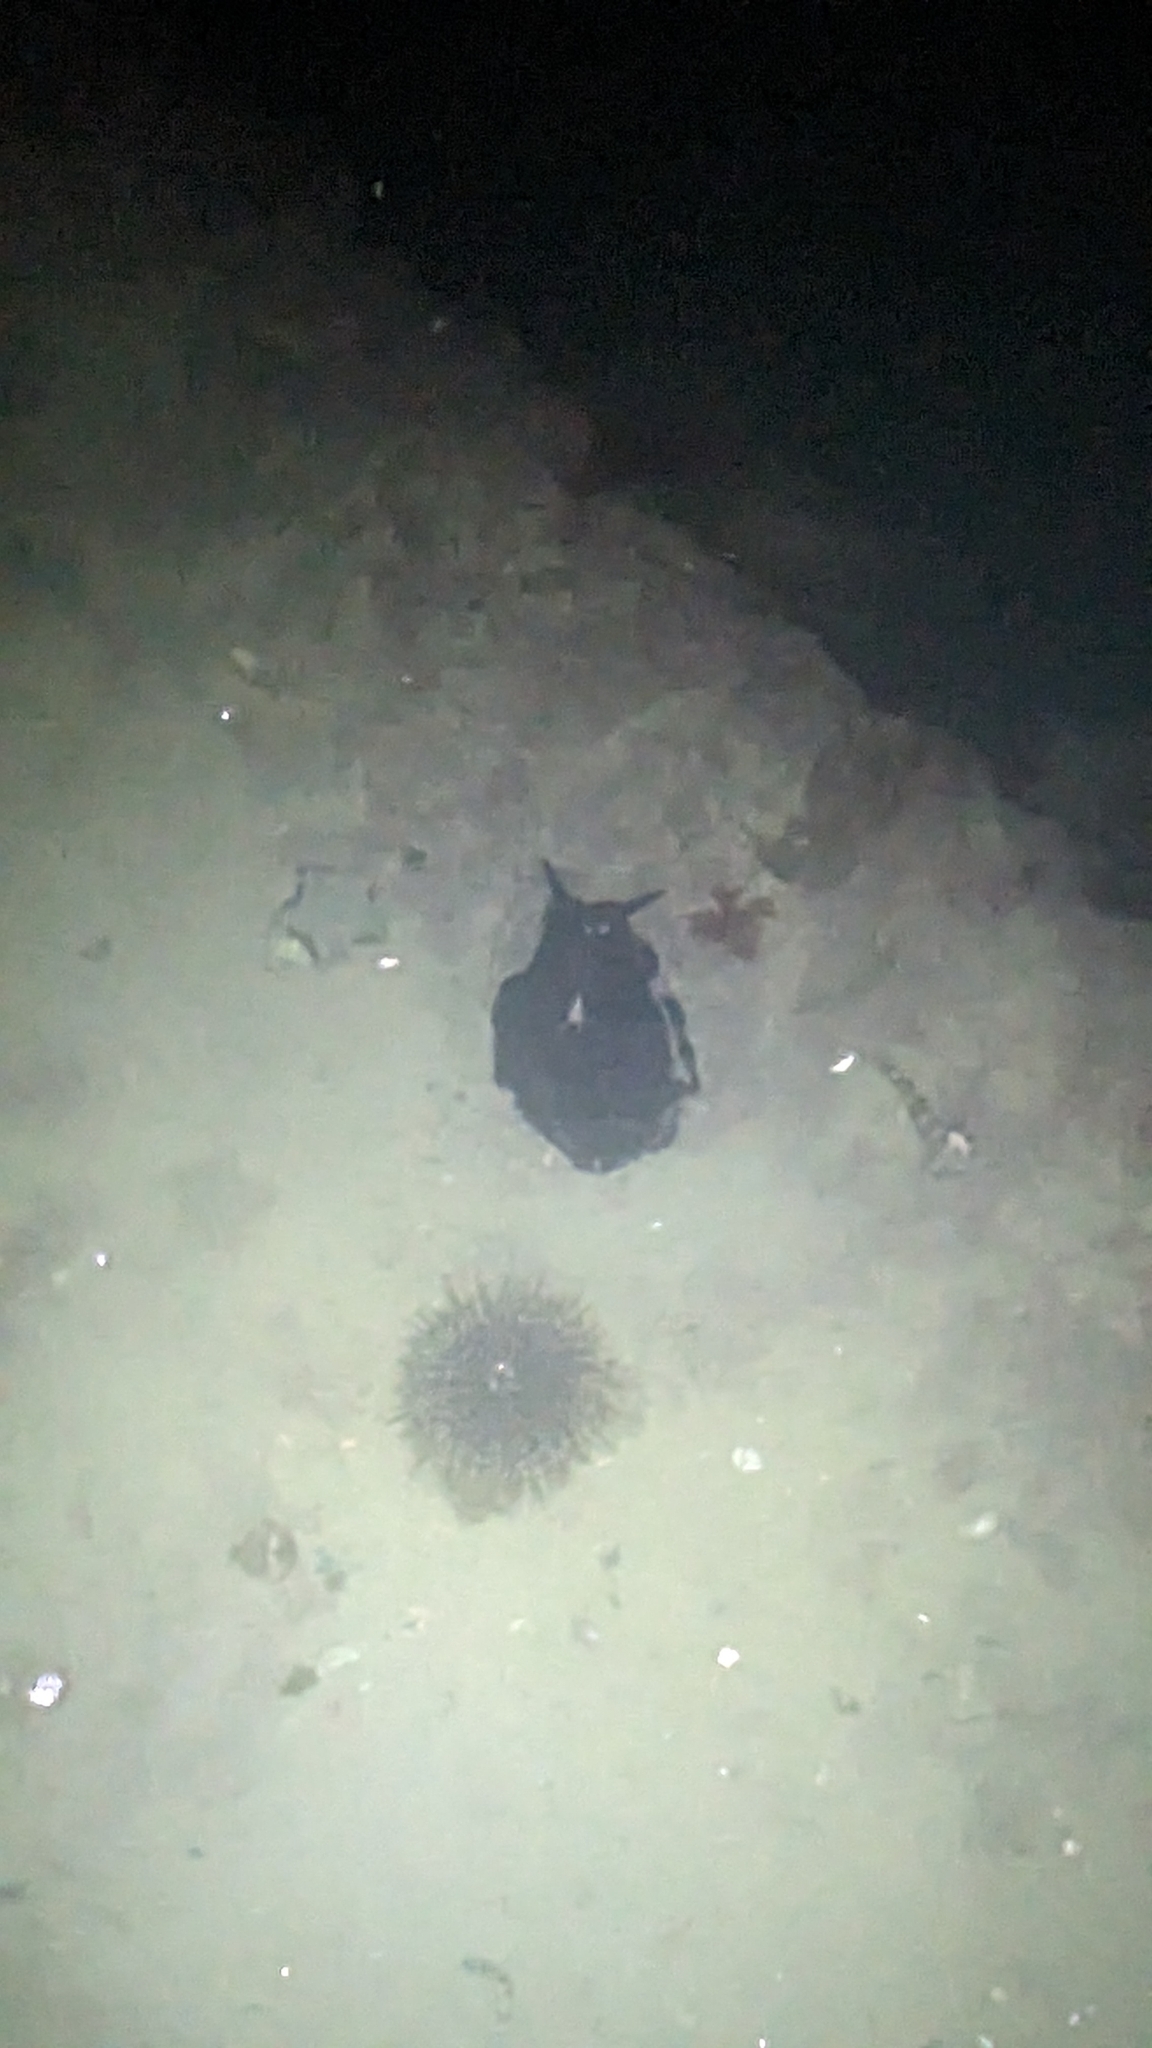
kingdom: Animalia
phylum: Mollusca
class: Gastropoda
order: Lepetellida
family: Fissurellidae
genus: Scutus
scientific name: Scutus breviculus
